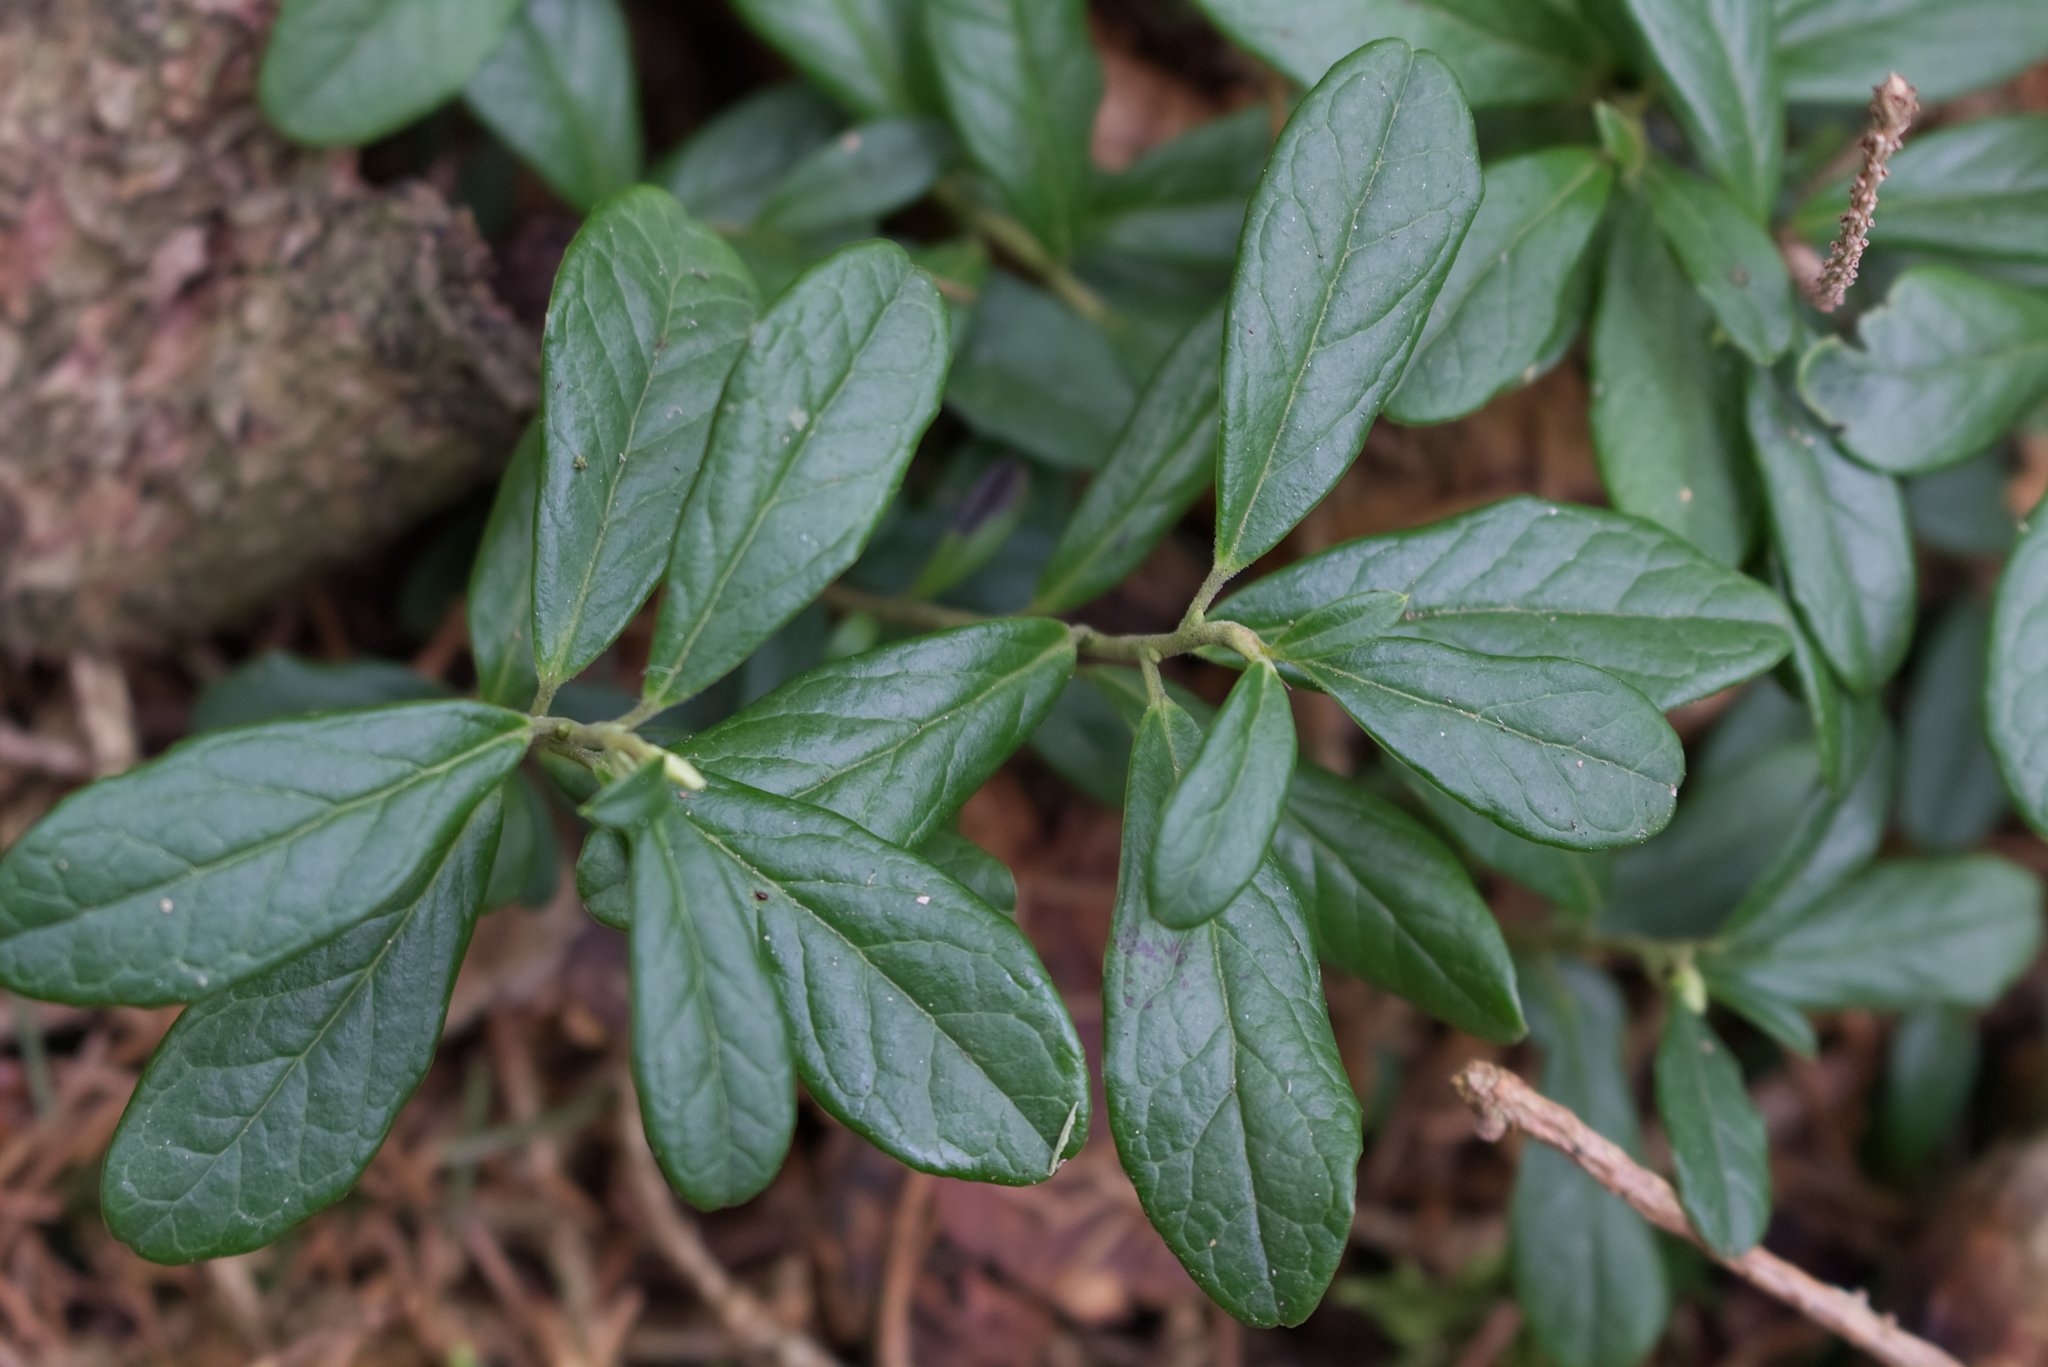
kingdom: Plantae
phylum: Tracheophyta
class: Magnoliopsida
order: Ericales
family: Ericaceae
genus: Vaccinium
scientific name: Vaccinium vitis-idaea
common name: Cowberry
